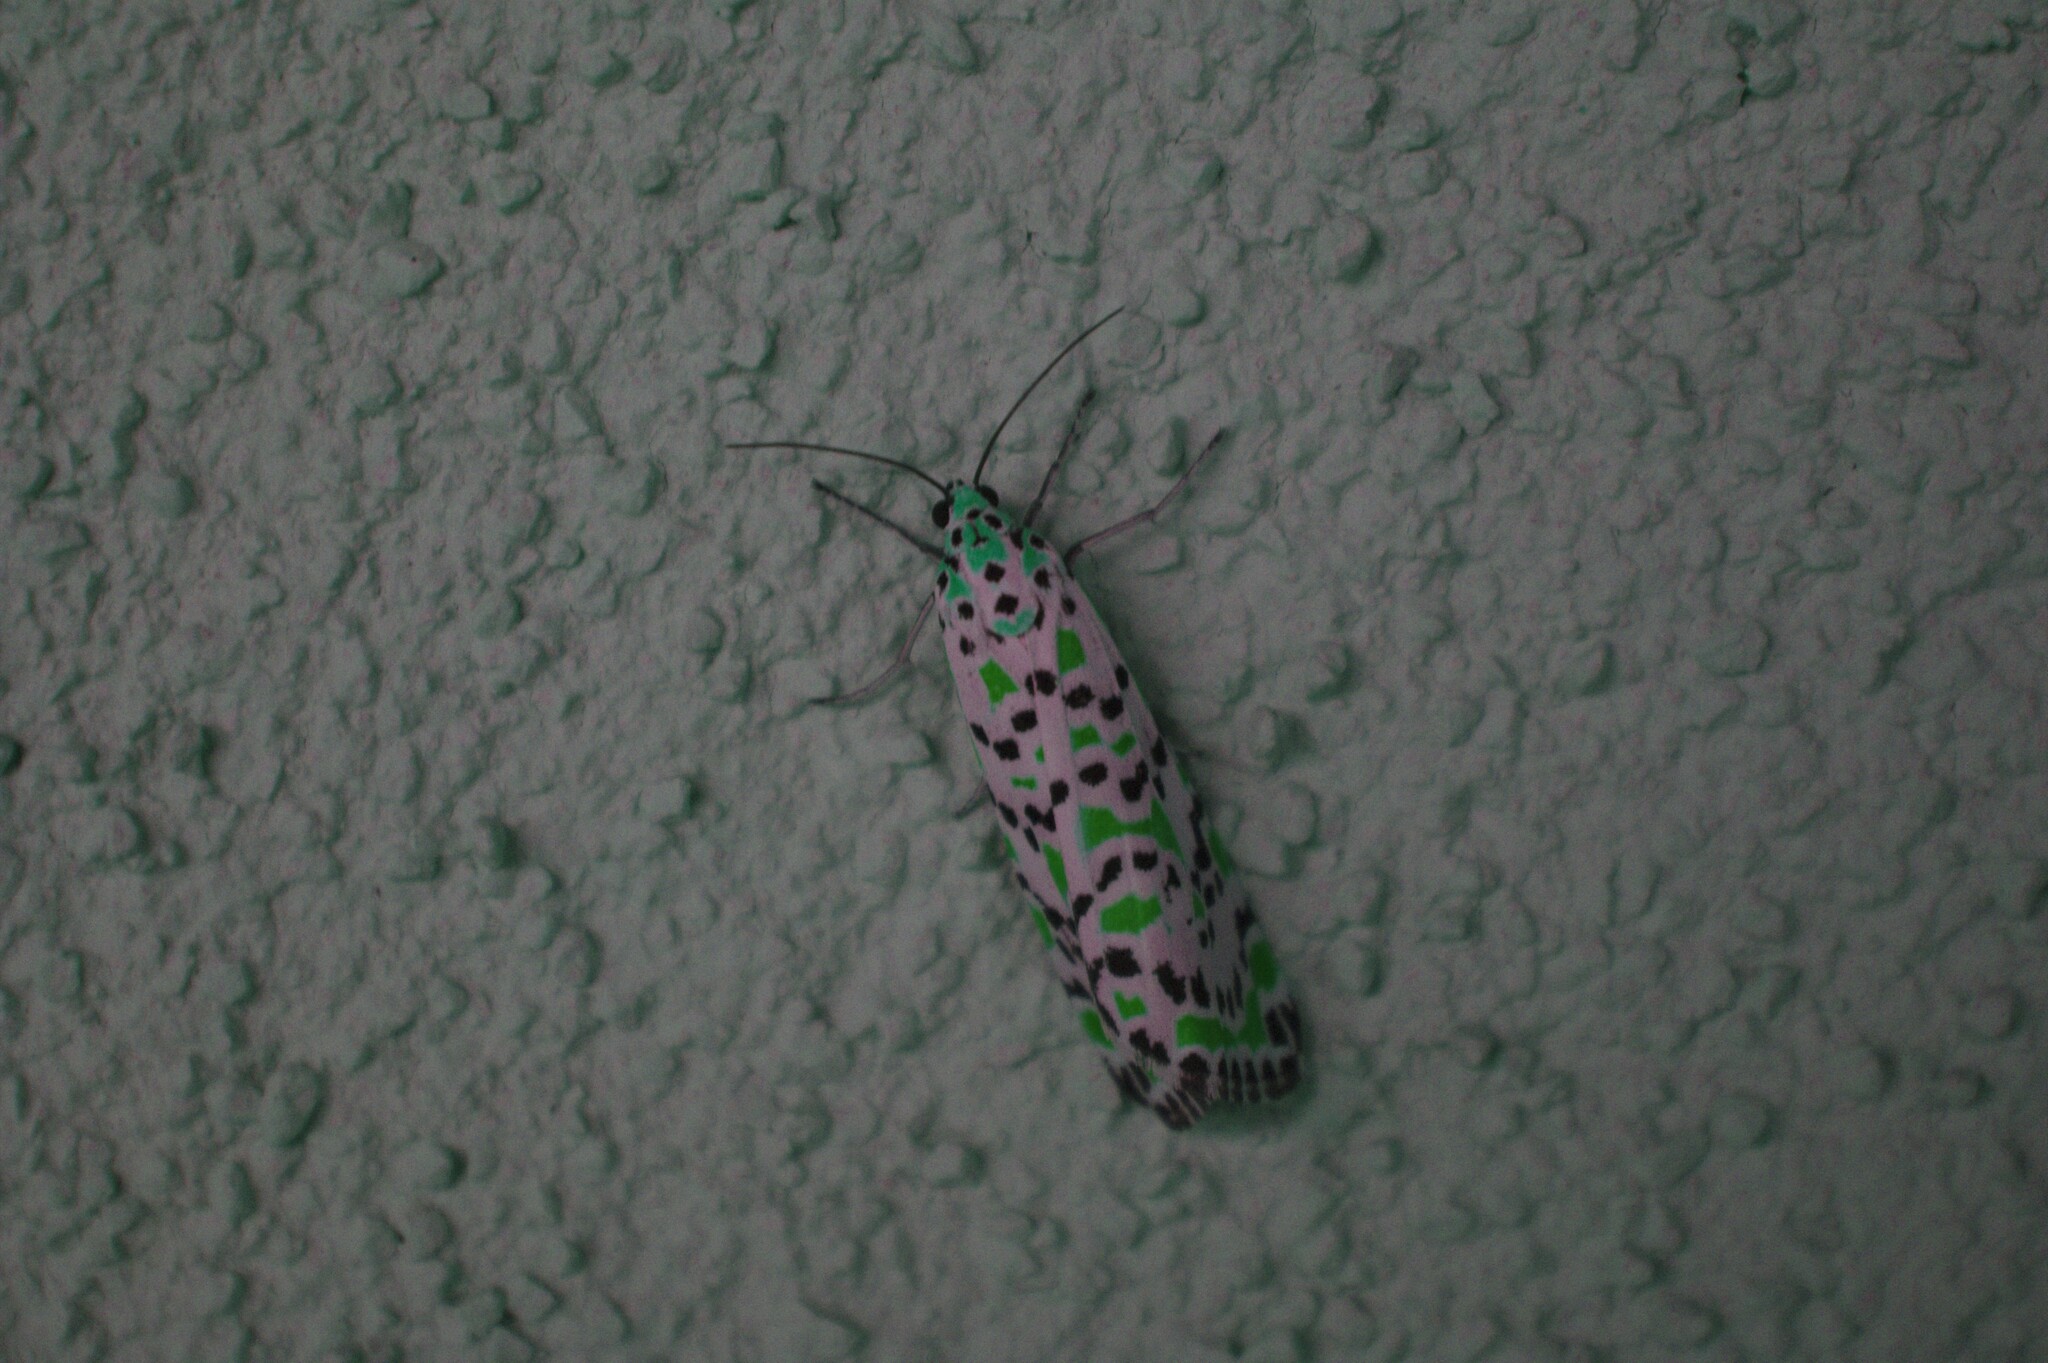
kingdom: Animalia
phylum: Arthropoda
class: Insecta
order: Lepidoptera
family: Erebidae
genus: Utetheisa
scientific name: Utetheisa pulchella
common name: Crimson speckled
